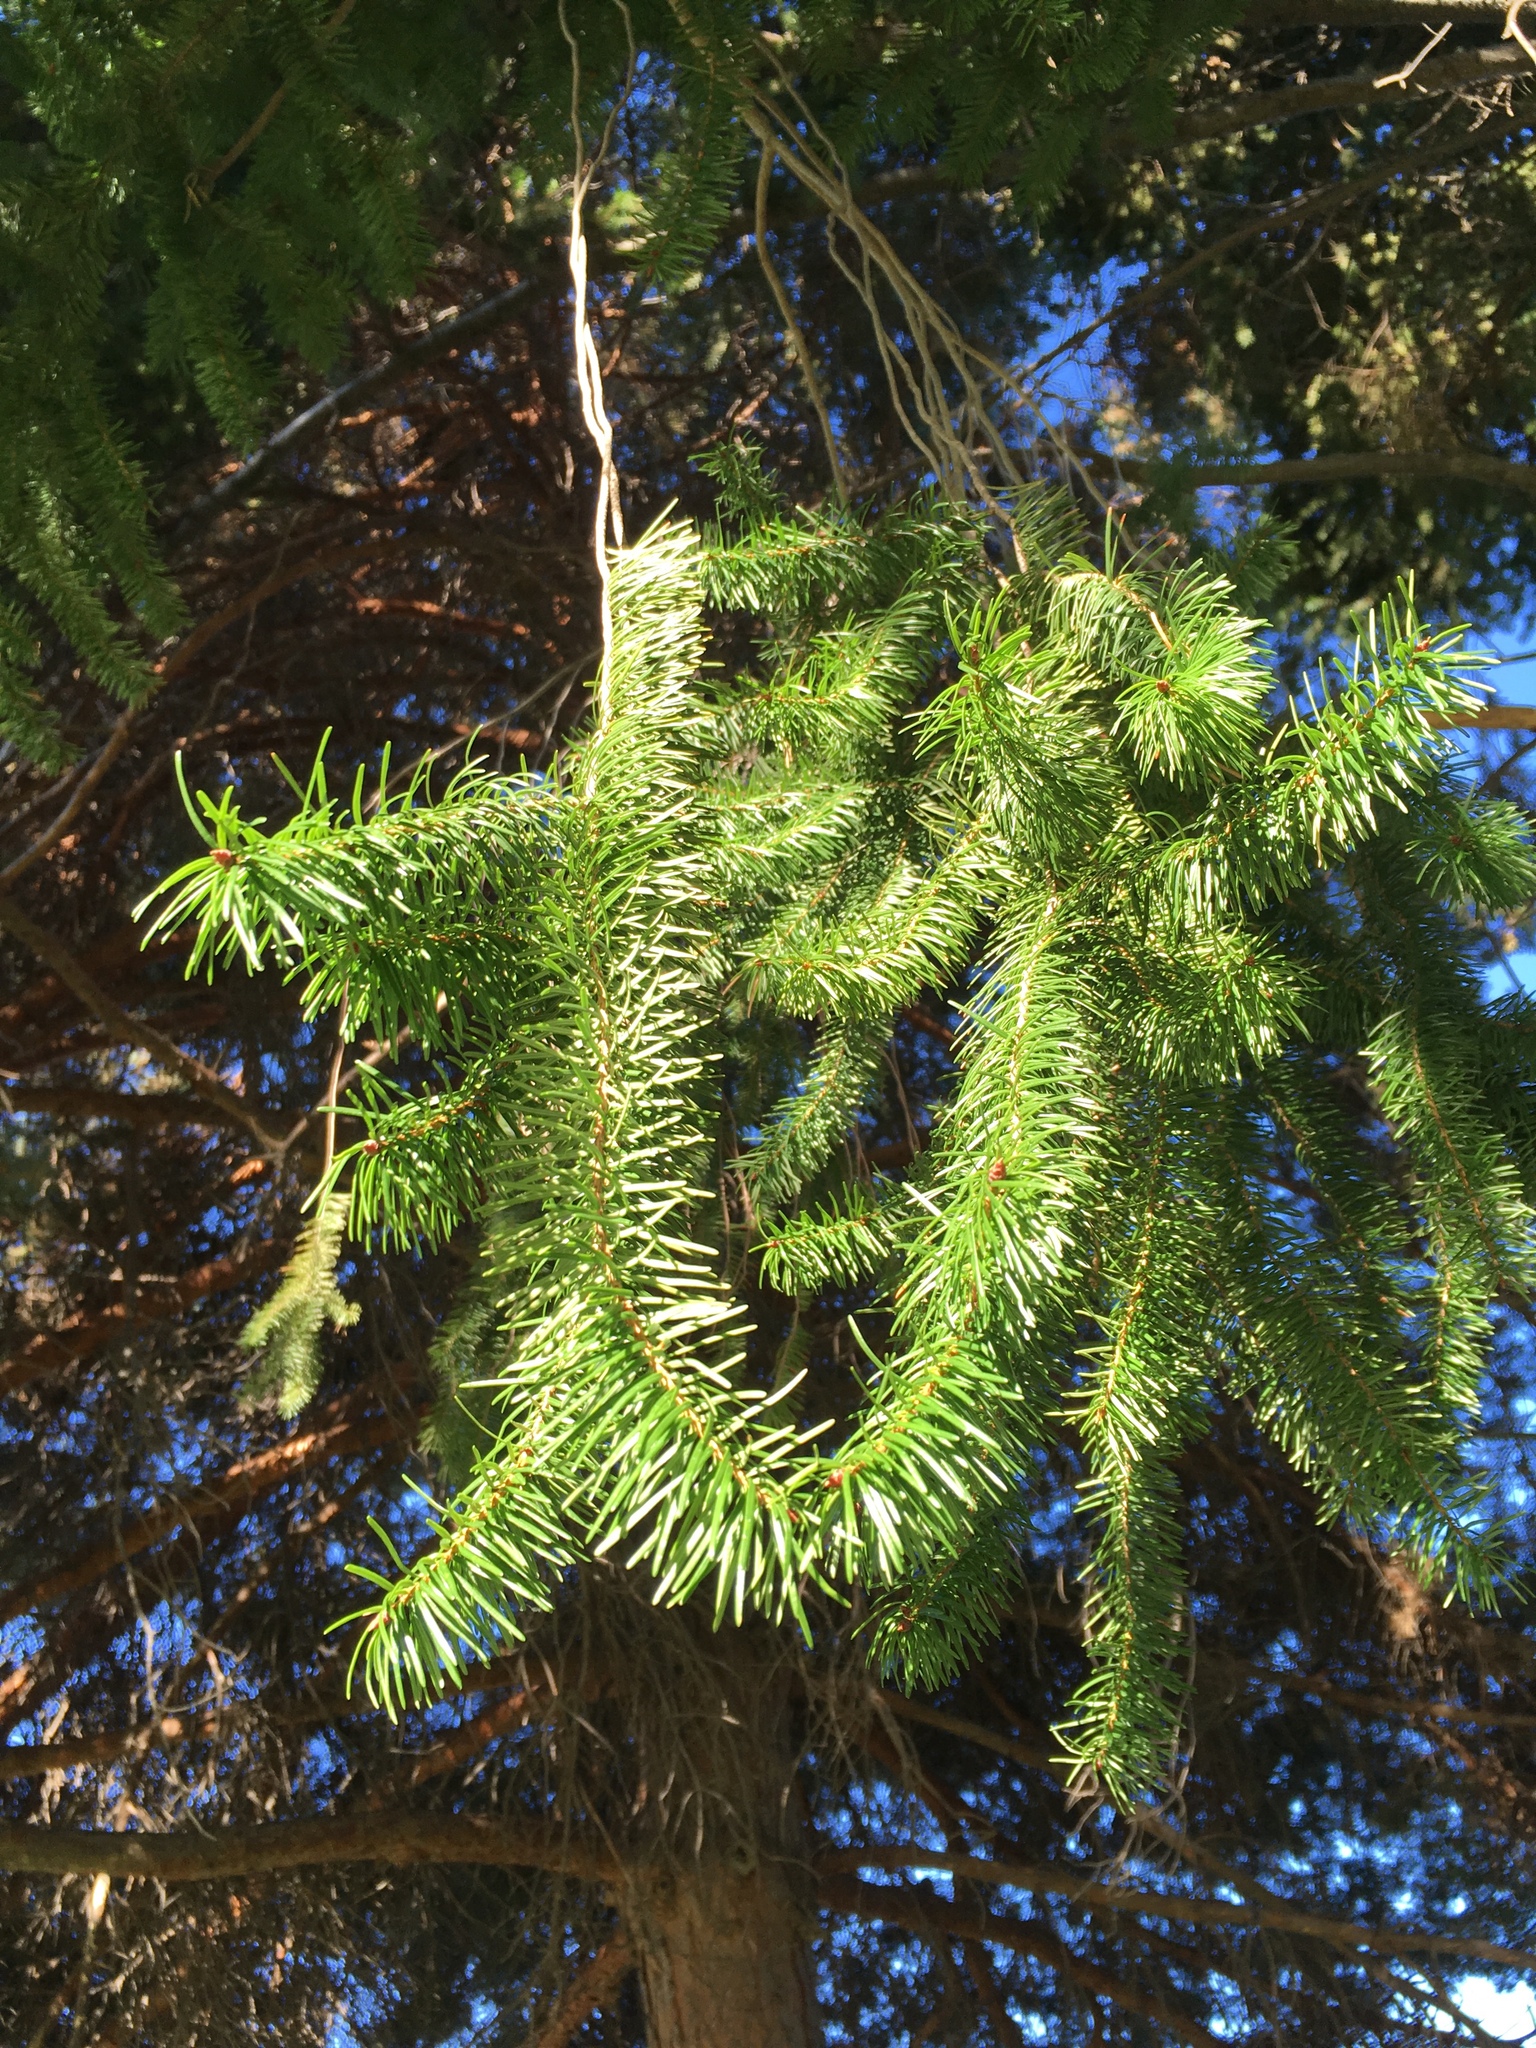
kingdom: Plantae
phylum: Tracheophyta
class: Pinopsida
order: Pinales
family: Pinaceae
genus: Pseudotsuga
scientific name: Pseudotsuga menziesii
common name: Douglas fir
